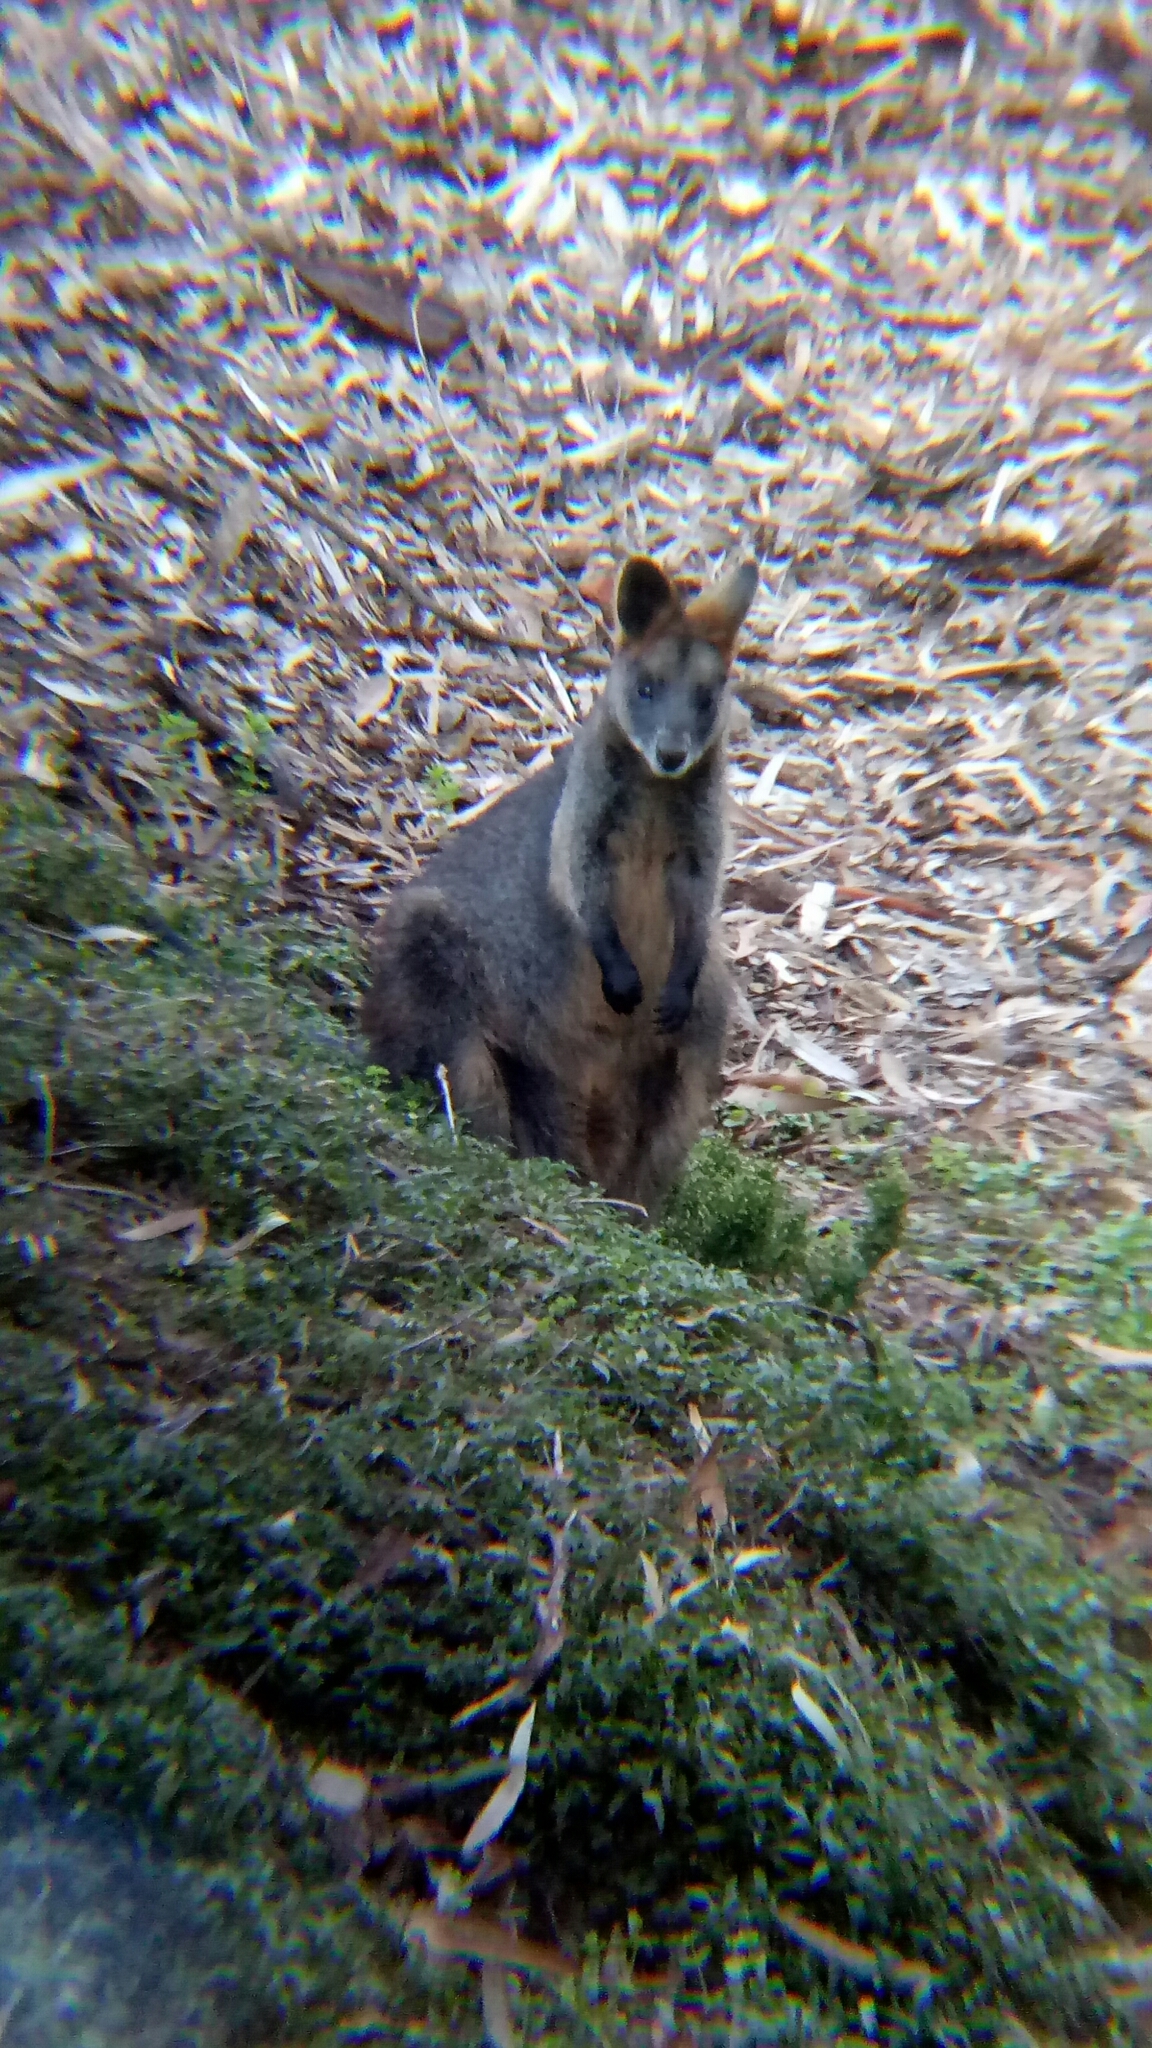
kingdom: Animalia
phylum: Chordata
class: Mammalia
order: Diprotodontia
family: Macropodidae
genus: Wallabia
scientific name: Wallabia bicolor
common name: Swamp wallaby
